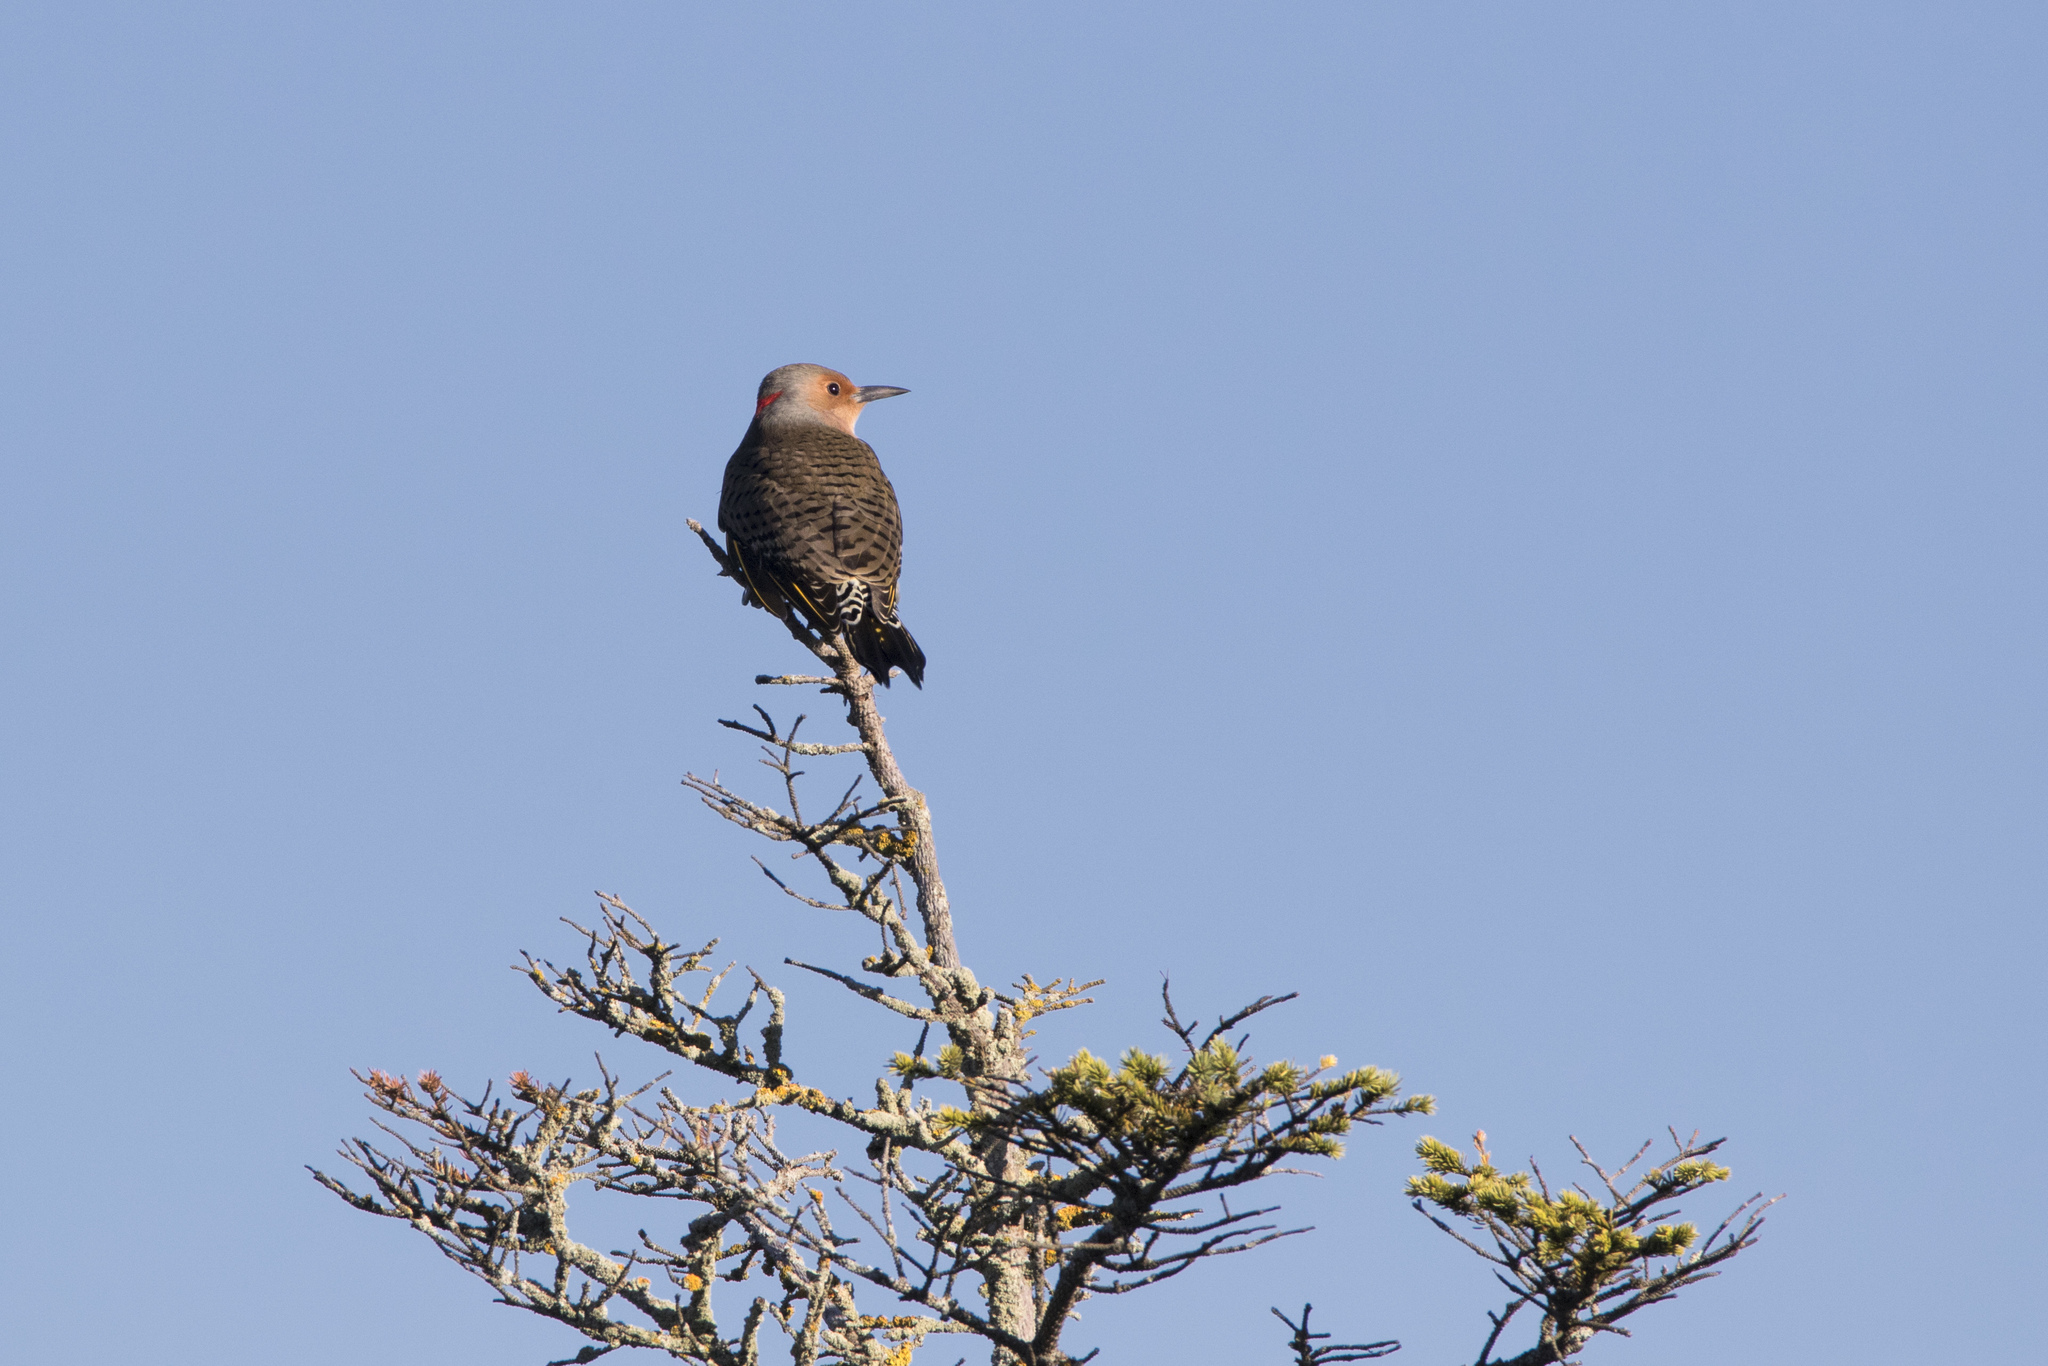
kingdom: Animalia
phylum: Chordata
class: Aves
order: Piciformes
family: Picidae
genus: Colaptes
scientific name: Colaptes auratus
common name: Northern flicker
